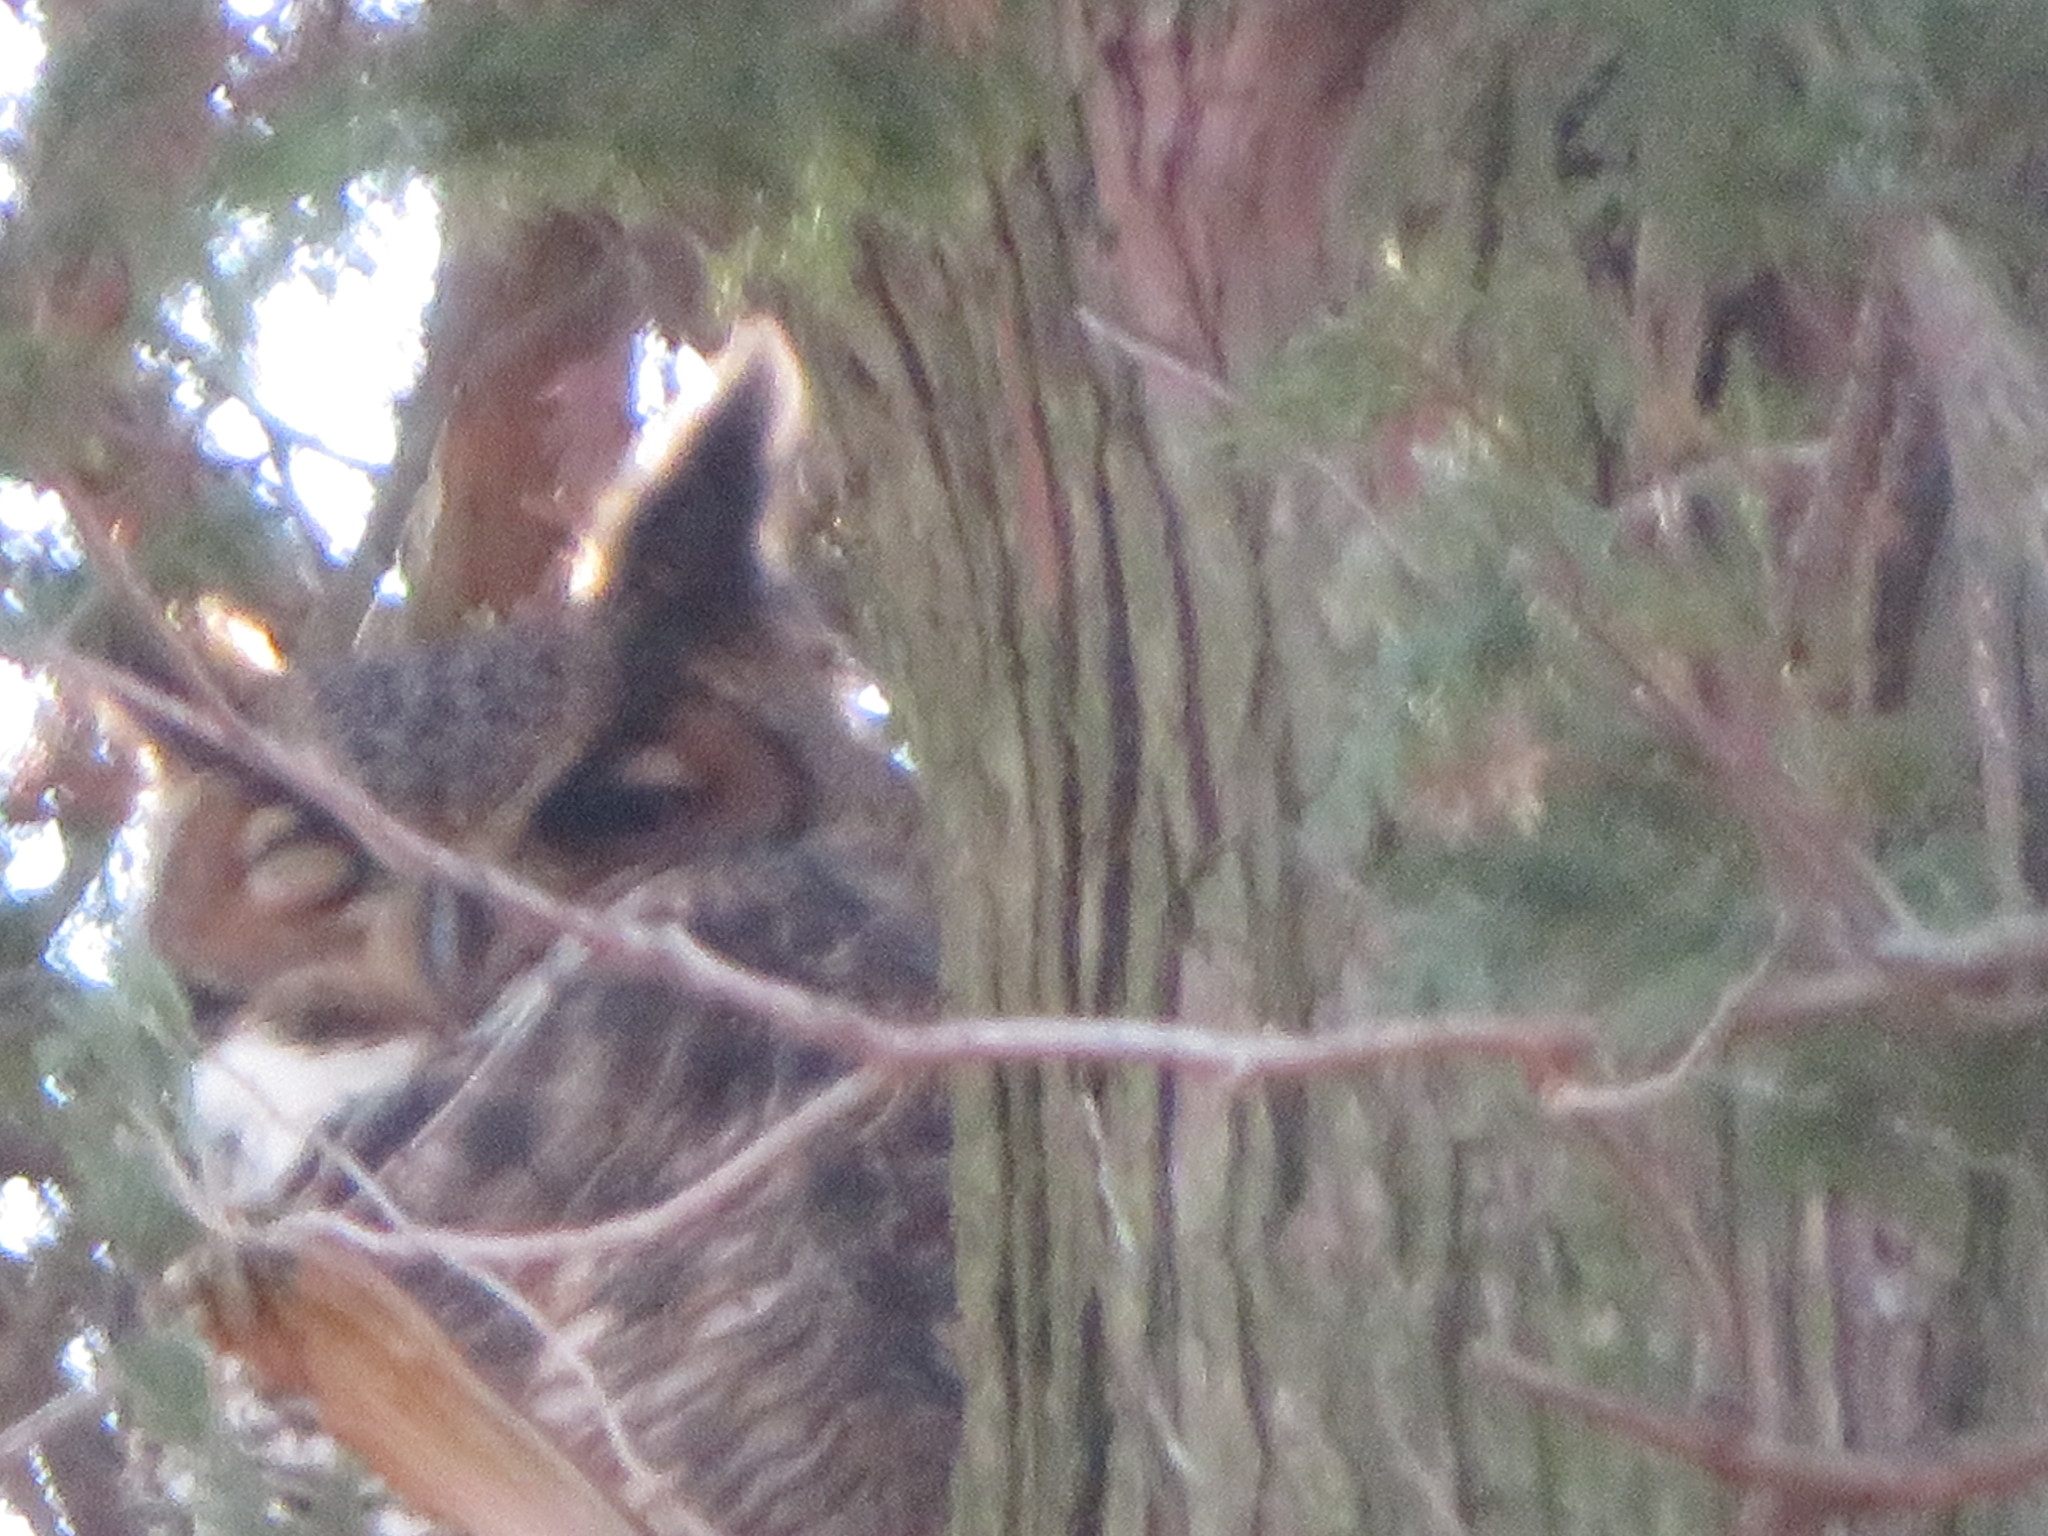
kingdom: Animalia
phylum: Chordata
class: Aves
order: Strigiformes
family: Strigidae
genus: Bubo
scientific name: Bubo virginianus
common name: Great horned owl
